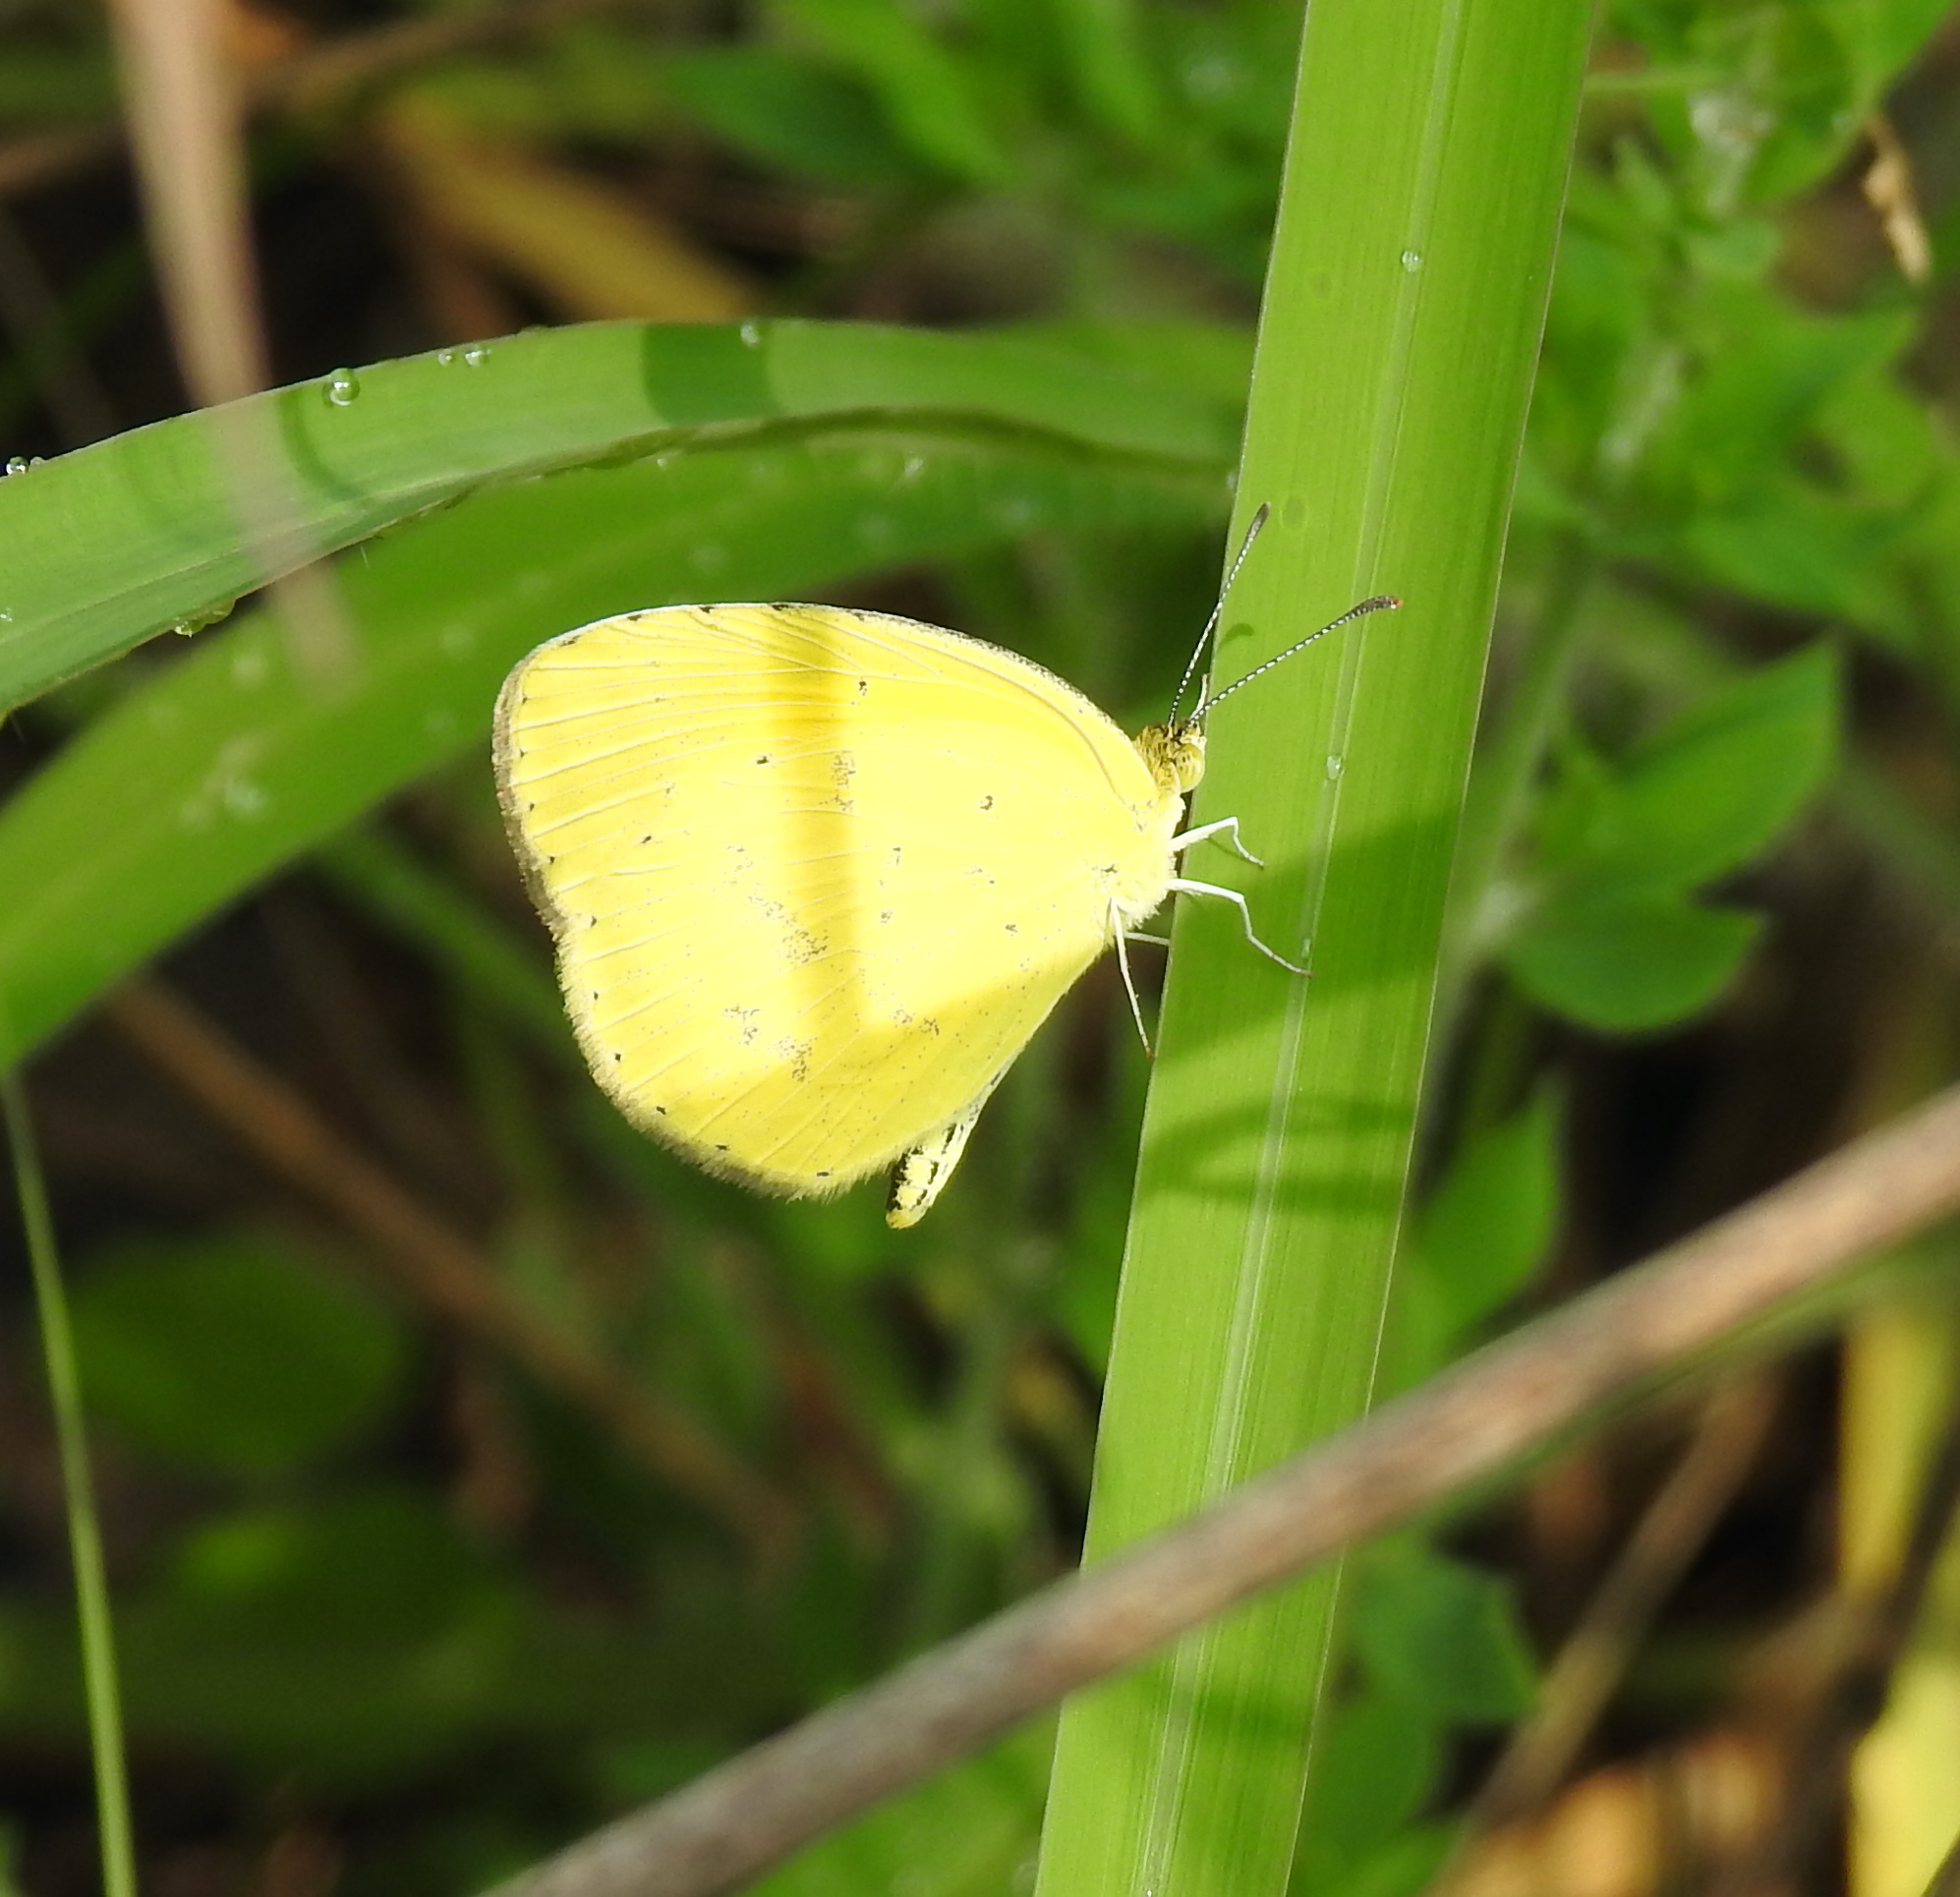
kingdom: Animalia
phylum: Arthropoda
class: Insecta
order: Lepidoptera
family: Pieridae
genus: Eurema
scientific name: Eurema brigitta
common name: Small grass yellow
